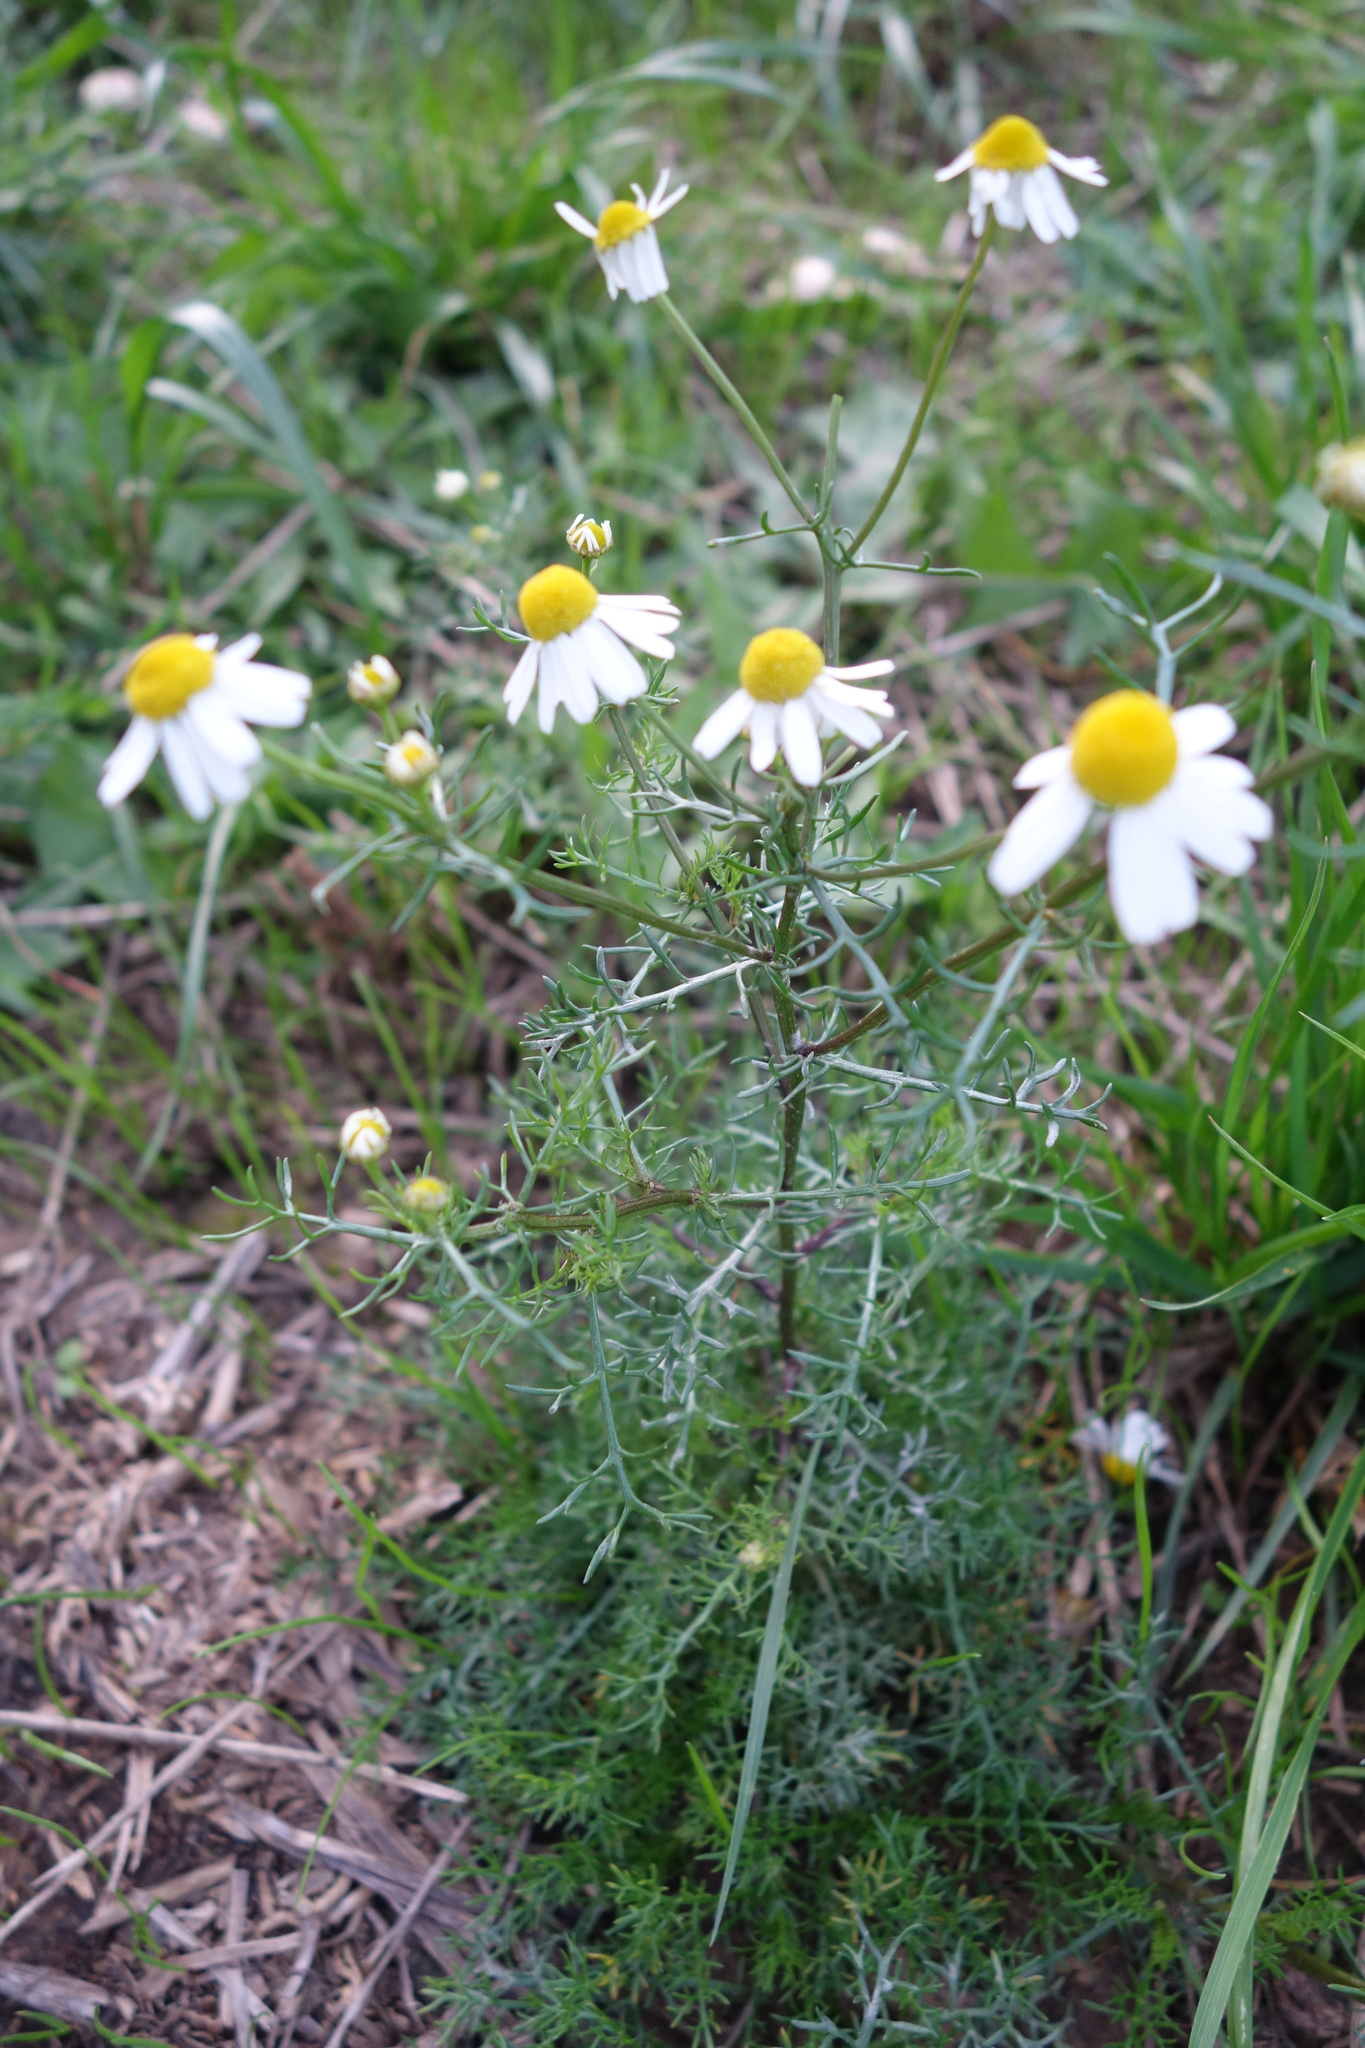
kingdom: Plantae
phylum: Tracheophyta
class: Magnoliopsida
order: Asterales
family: Asteraceae
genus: Matricaria
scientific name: Matricaria chamomilla
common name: Scented mayweed
